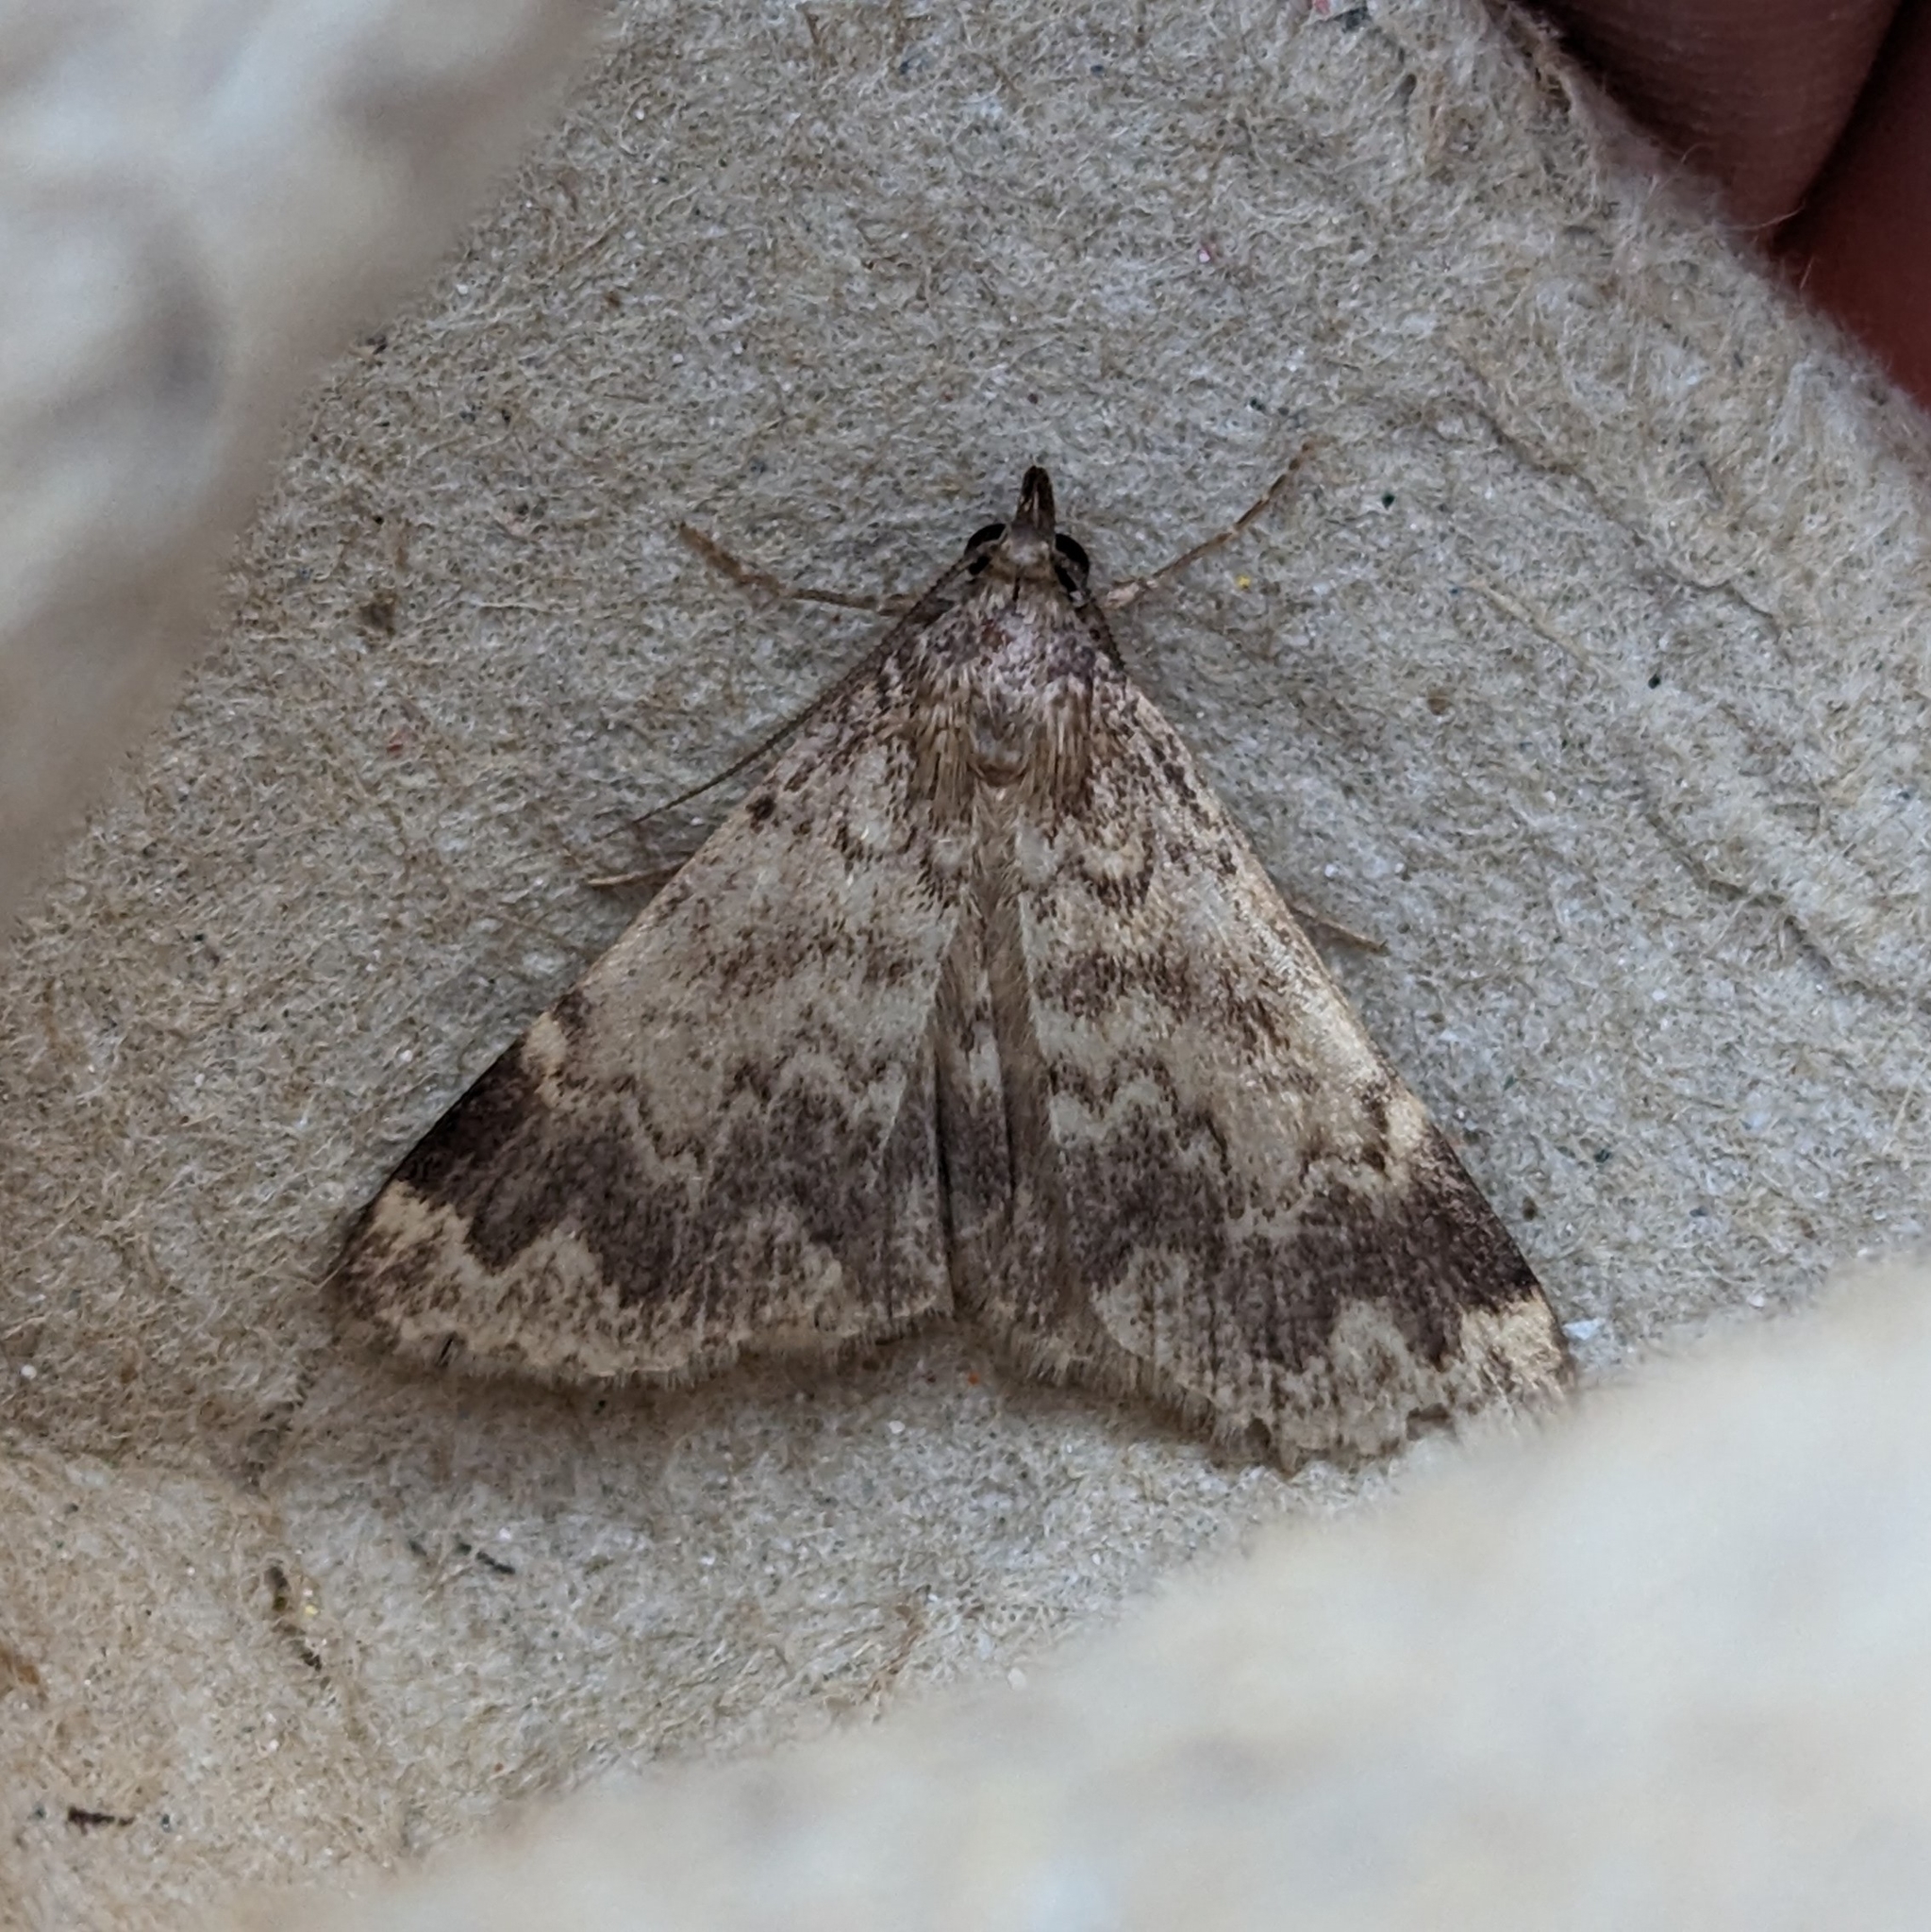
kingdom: Animalia
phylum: Arthropoda
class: Insecta
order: Lepidoptera
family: Erebidae
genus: Idia
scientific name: Idia occidentalis
